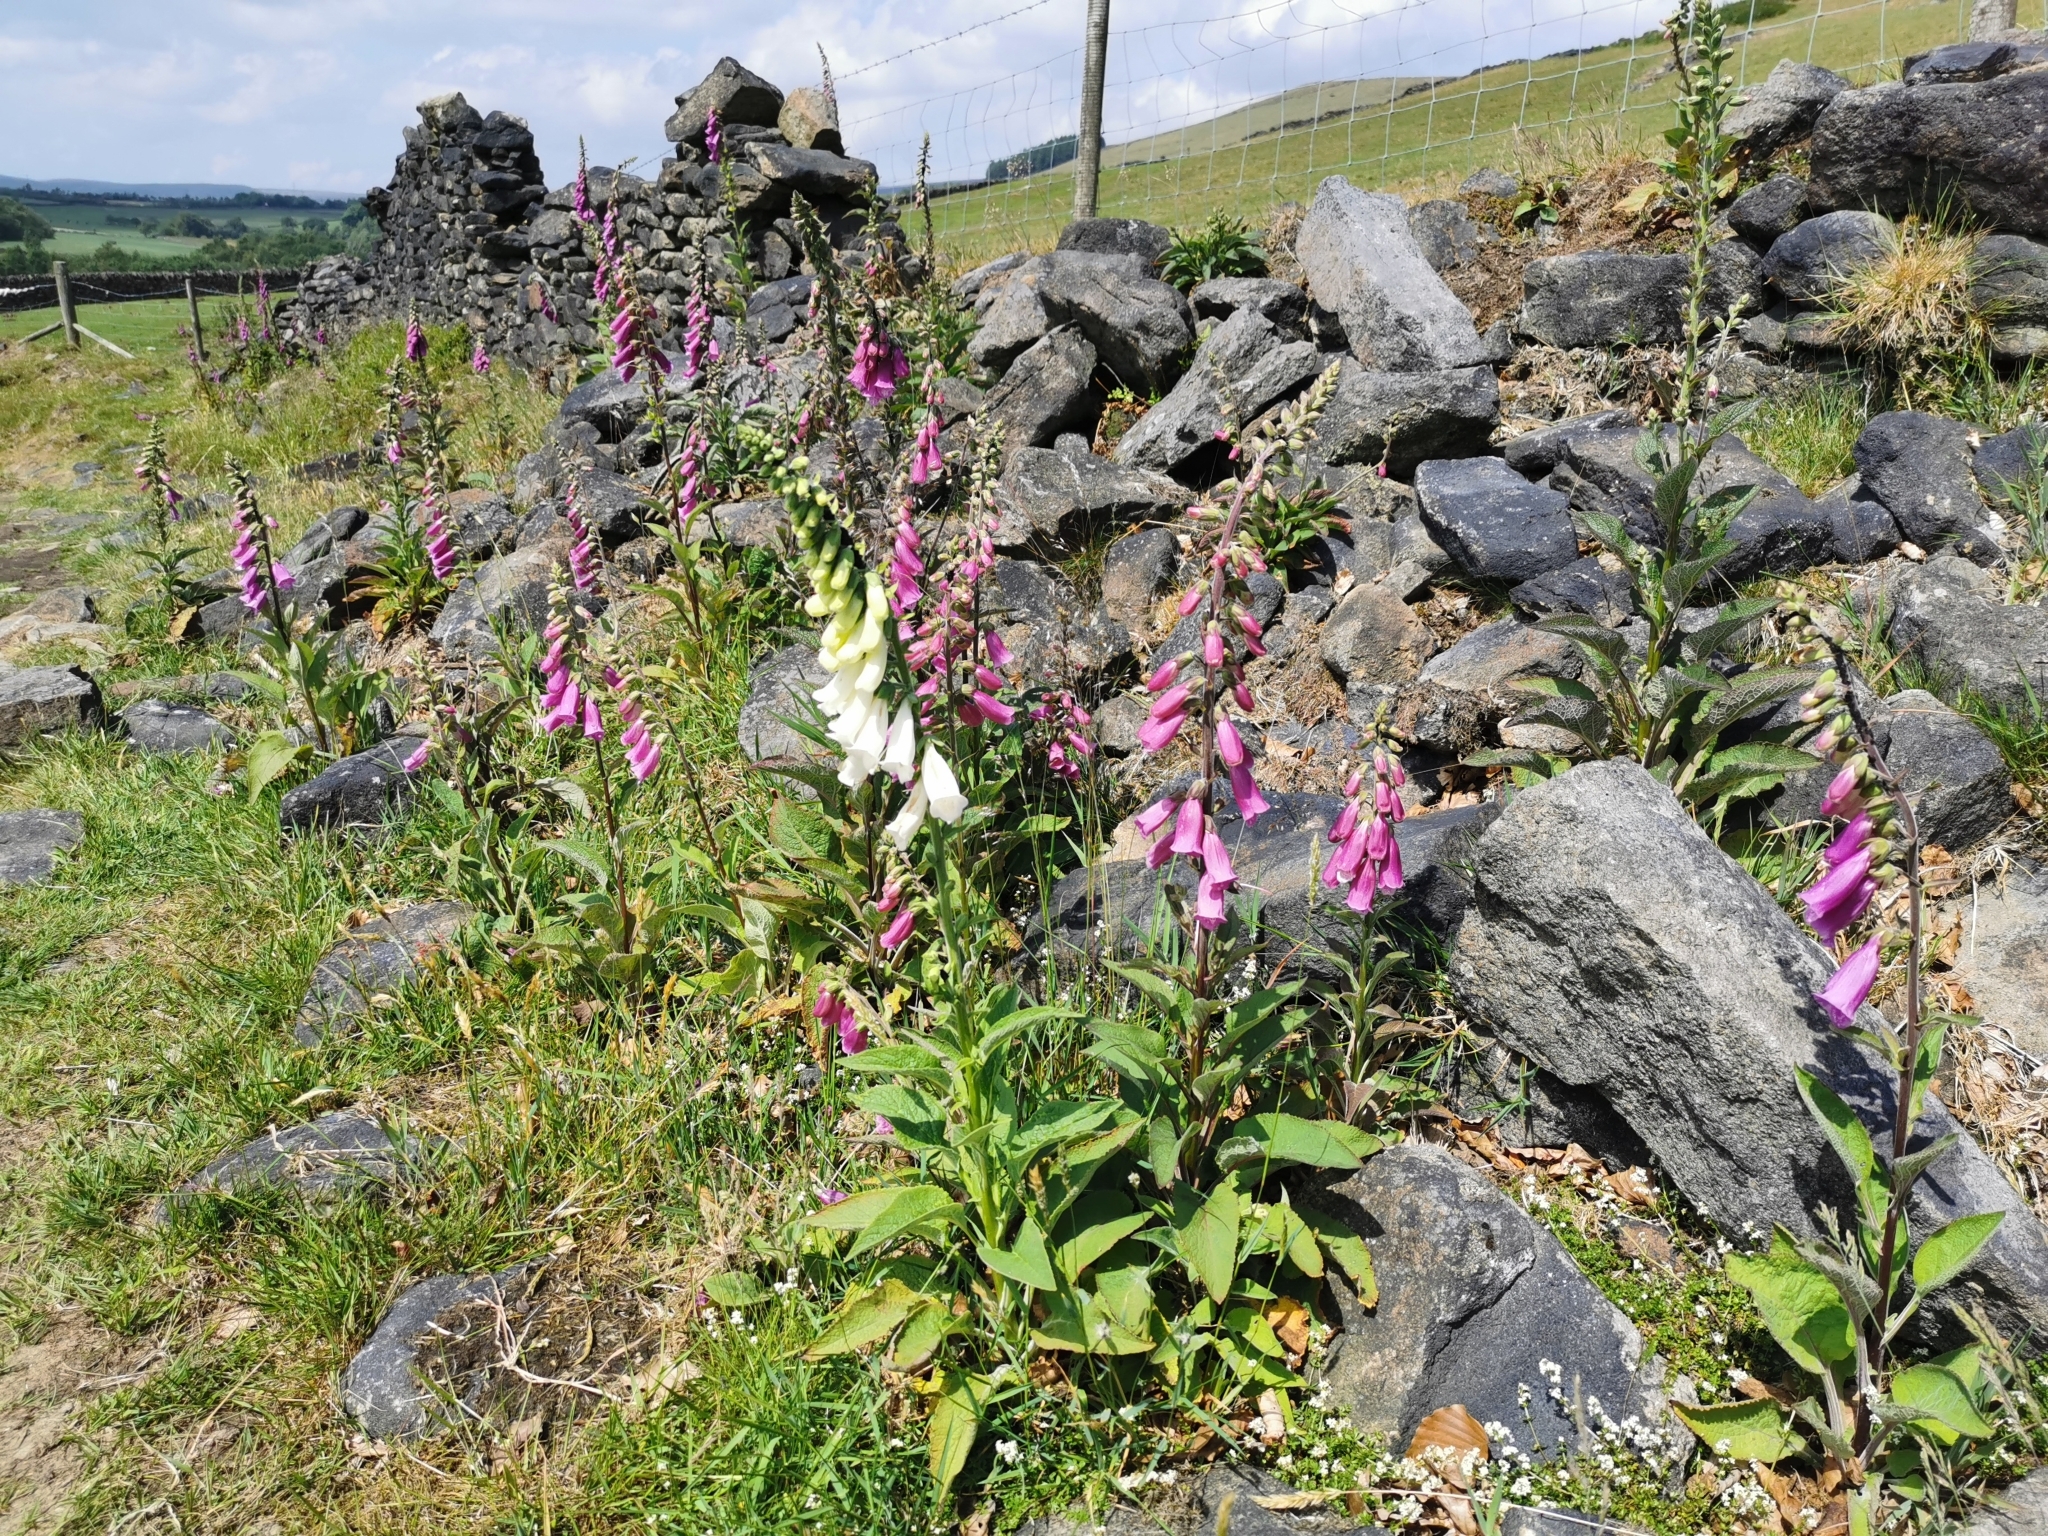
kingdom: Plantae
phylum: Tracheophyta
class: Magnoliopsida
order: Lamiales
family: Plantaginaceae
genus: Digitalis
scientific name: Digitalis purpurea
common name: Foxglove
